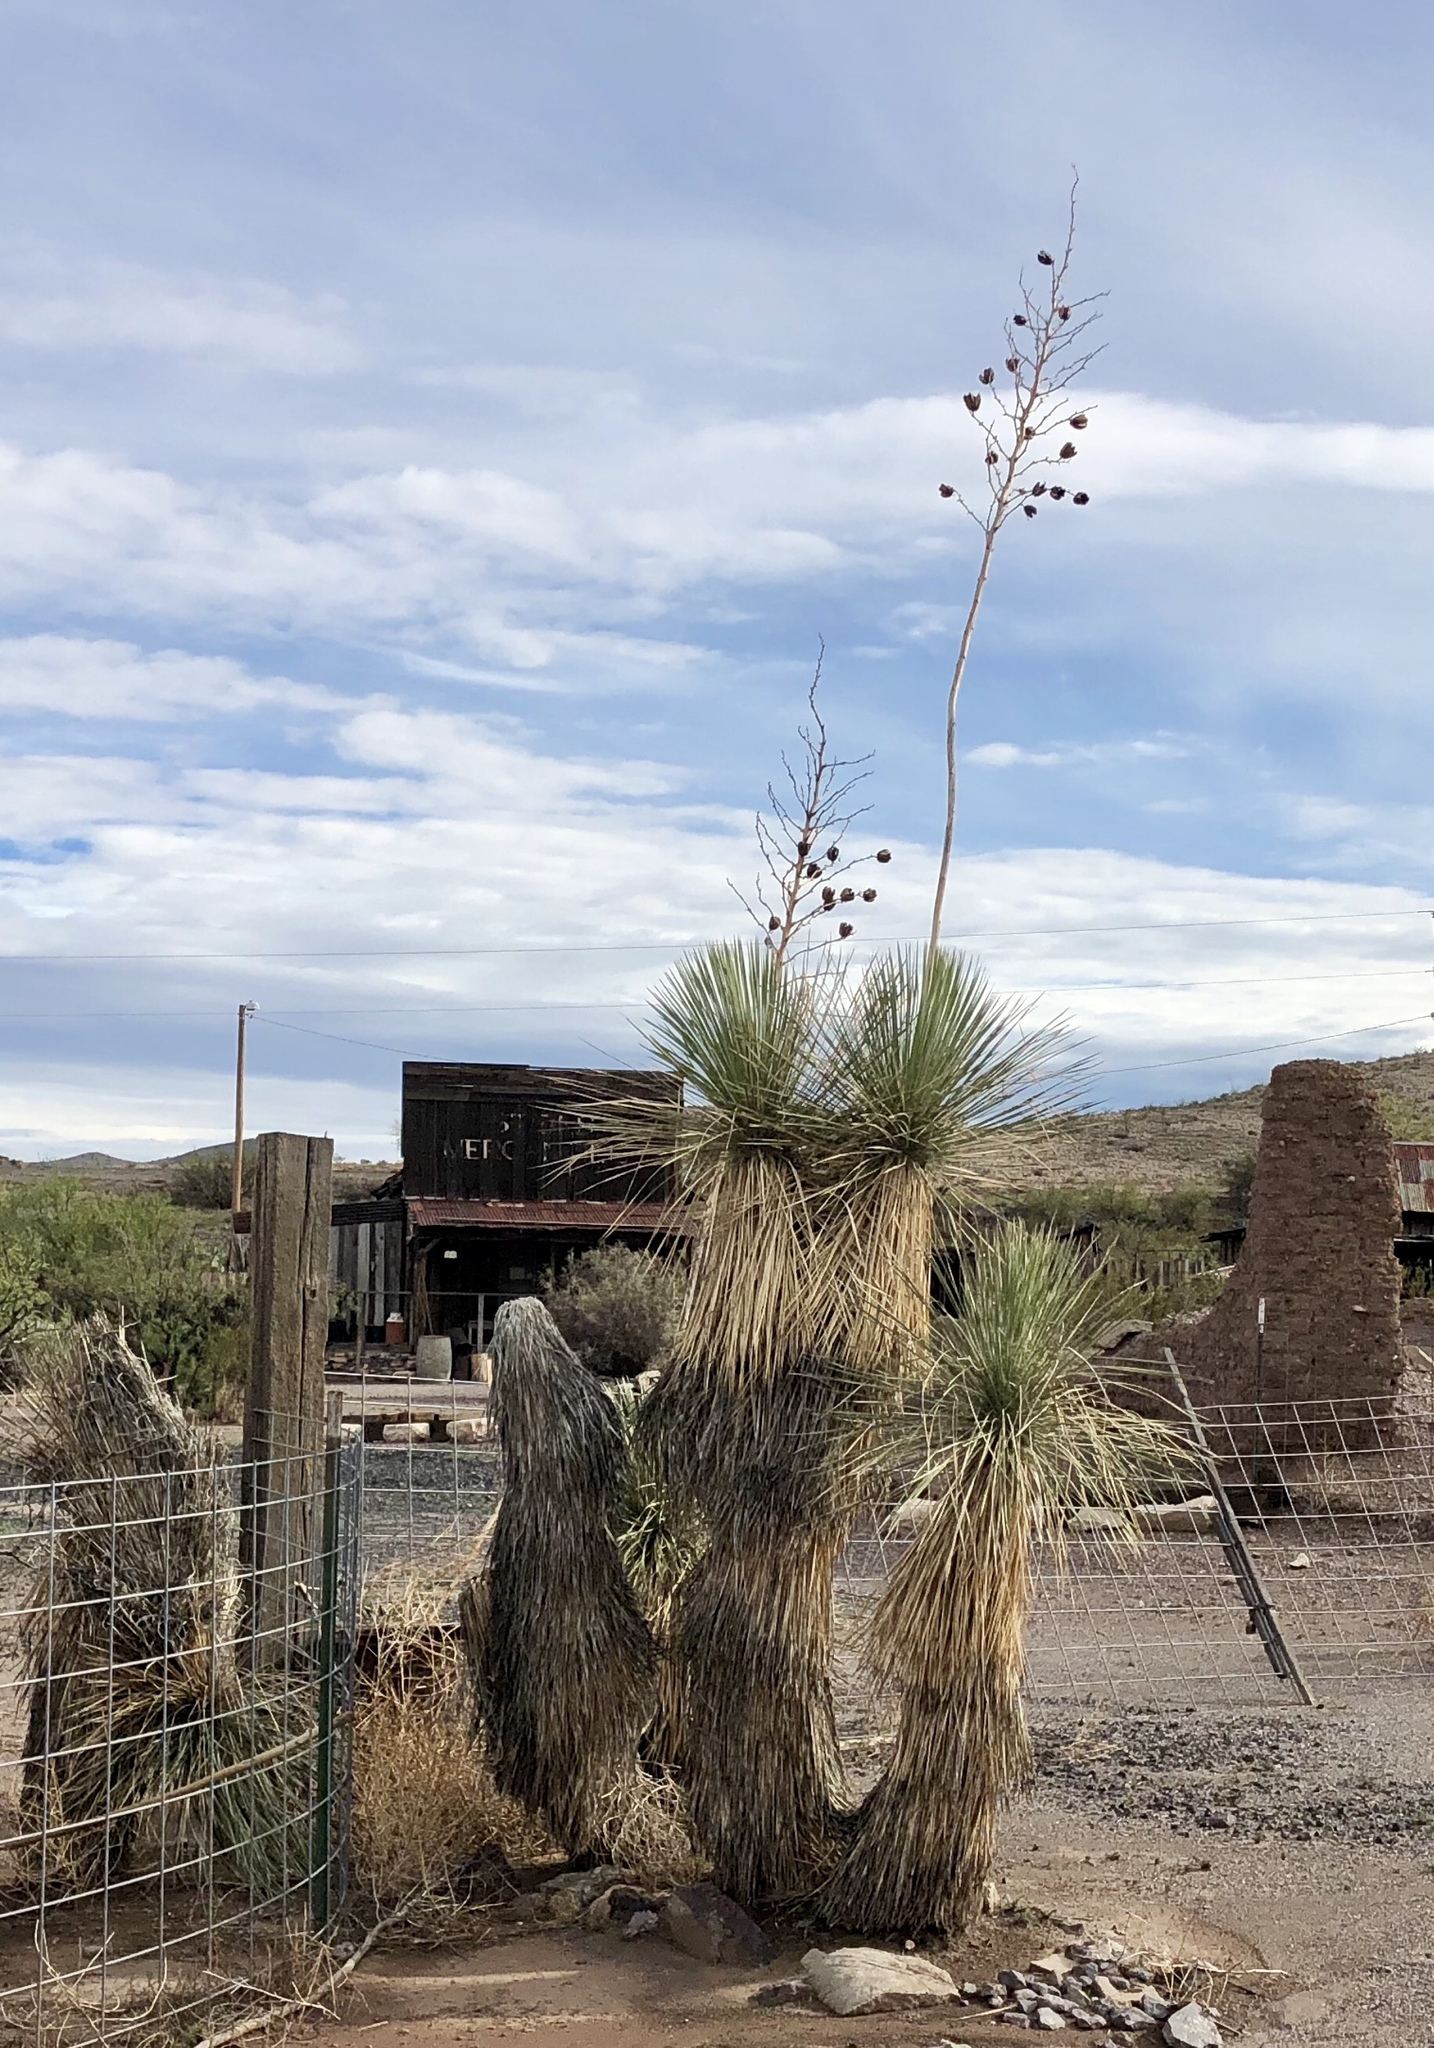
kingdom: Plantae
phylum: Tracheophyta
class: Liliopsida
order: Asparagales
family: Asparagaceae
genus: Yucca
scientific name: Yucca elata
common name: Palmella
